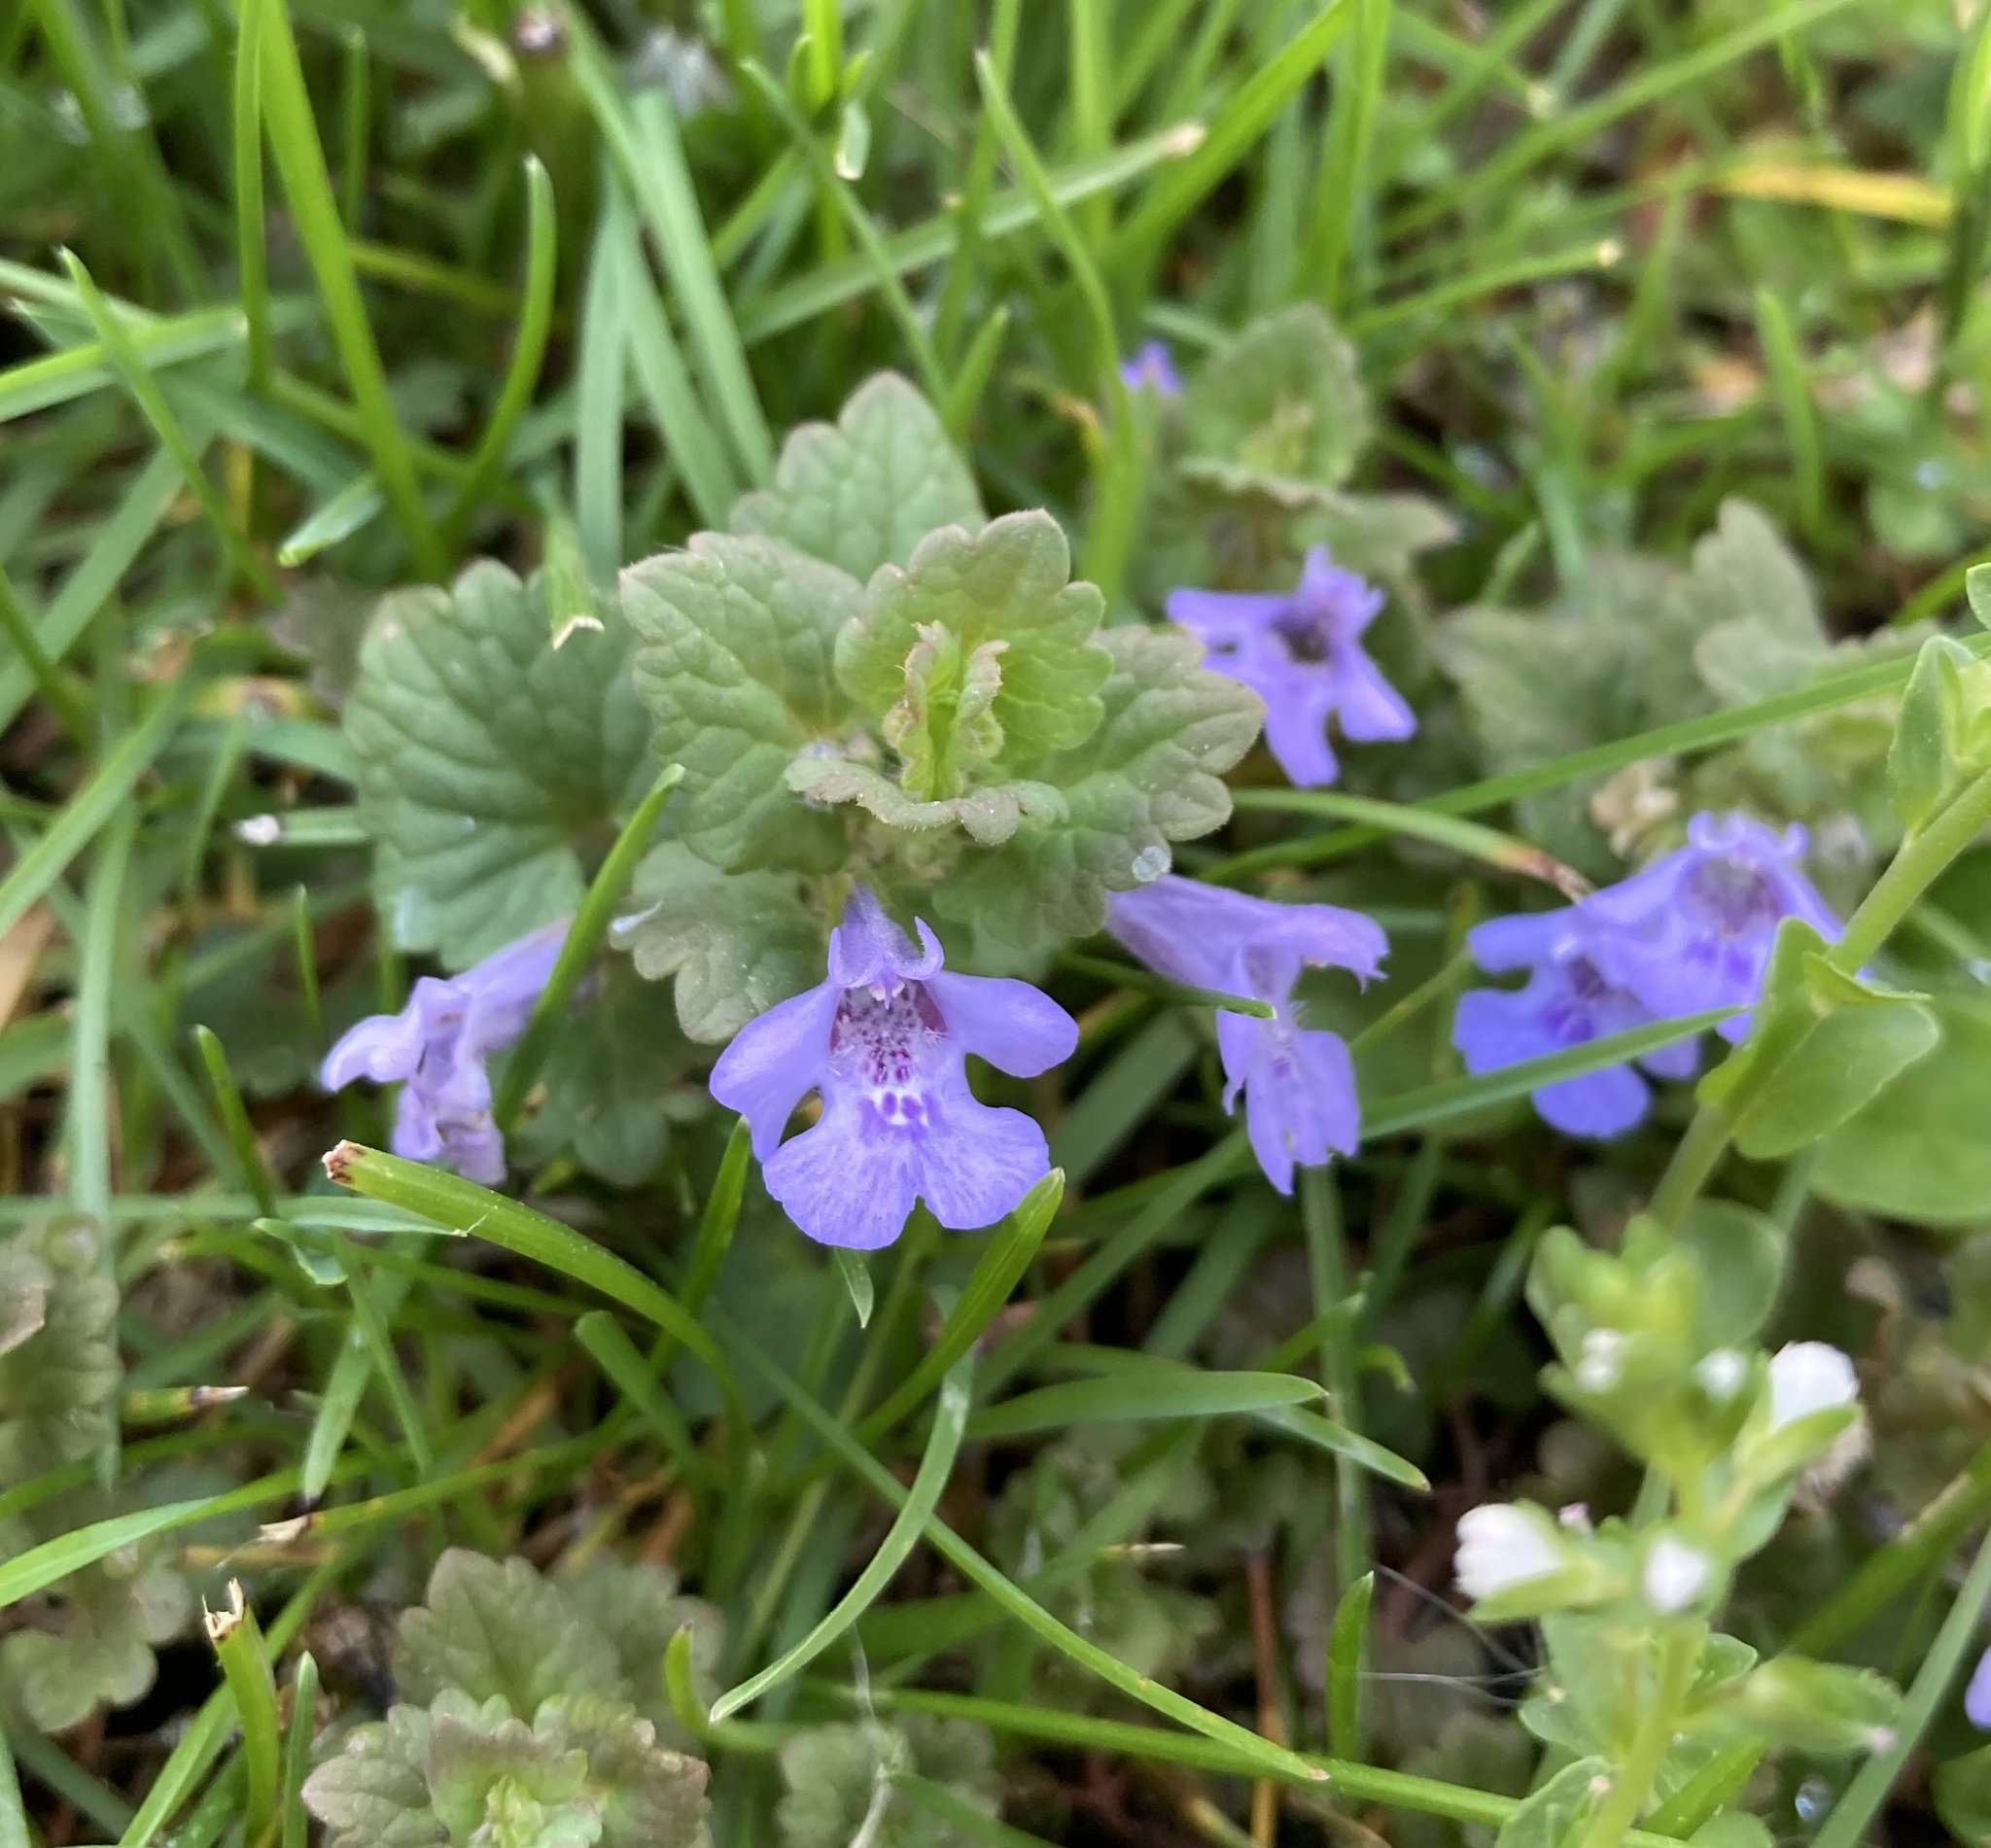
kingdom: Plantae
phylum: Tracheophyta
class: Magnoliopsida
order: Lamiales
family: Lamiaceae
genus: Glechoma
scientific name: Glechoma hederacea
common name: Ground ivy
